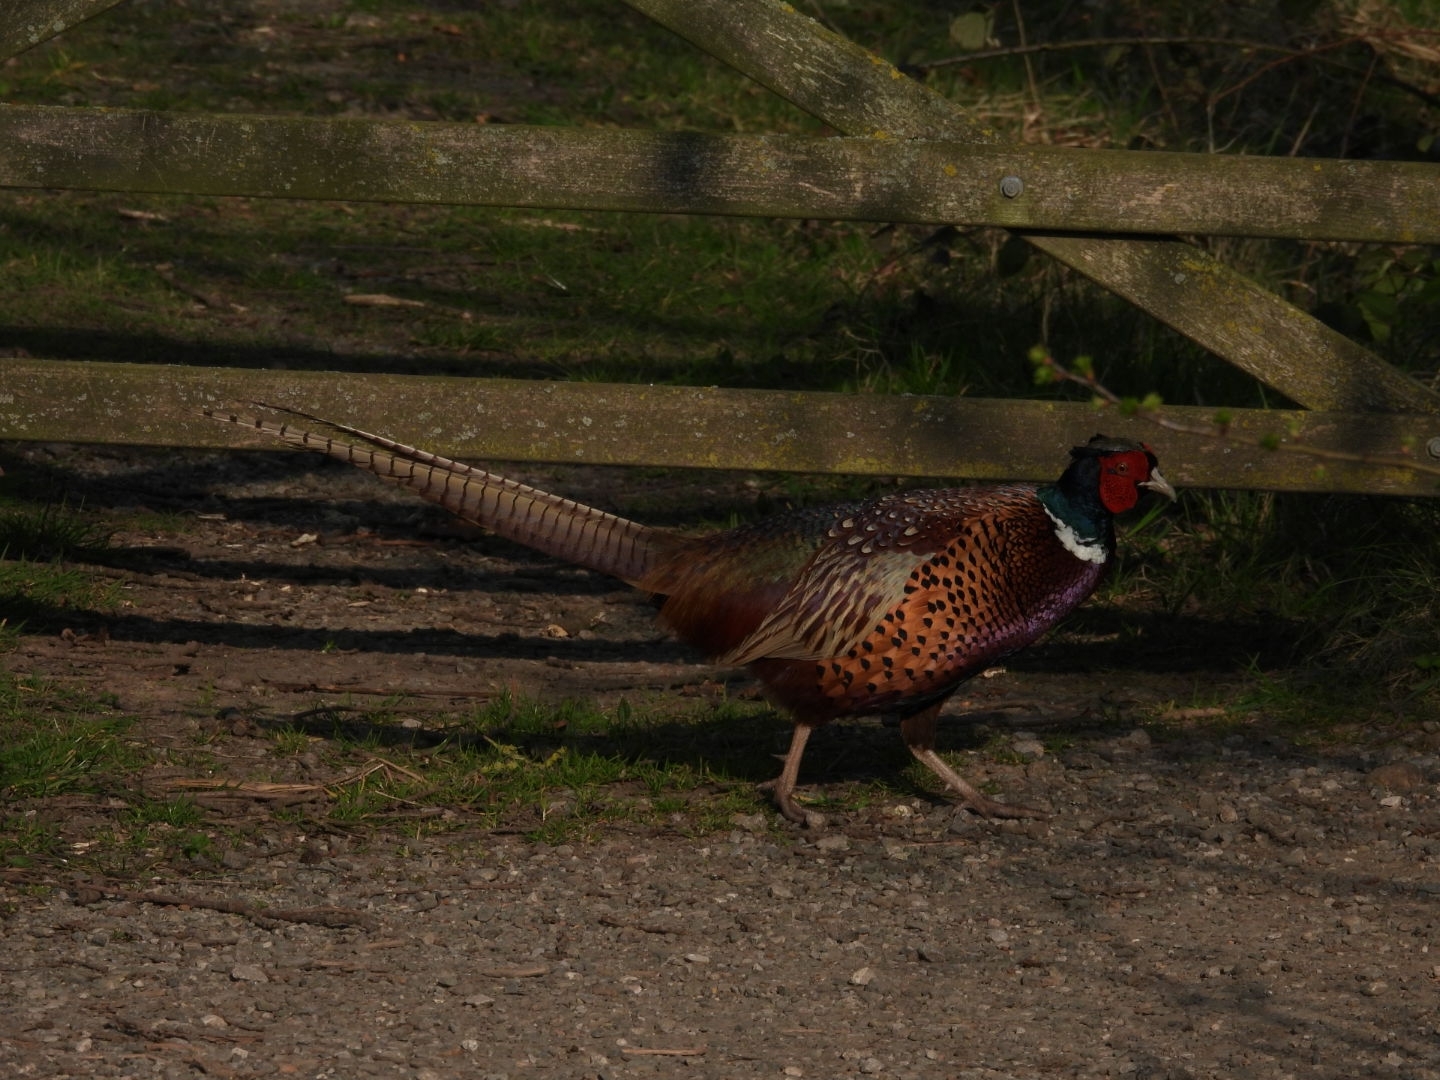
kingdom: Animalia
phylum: Chordata
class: Aves
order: Galliformes
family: Phasianidae
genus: Phasianus
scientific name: Phasianus colchicus
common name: Common pheasant
